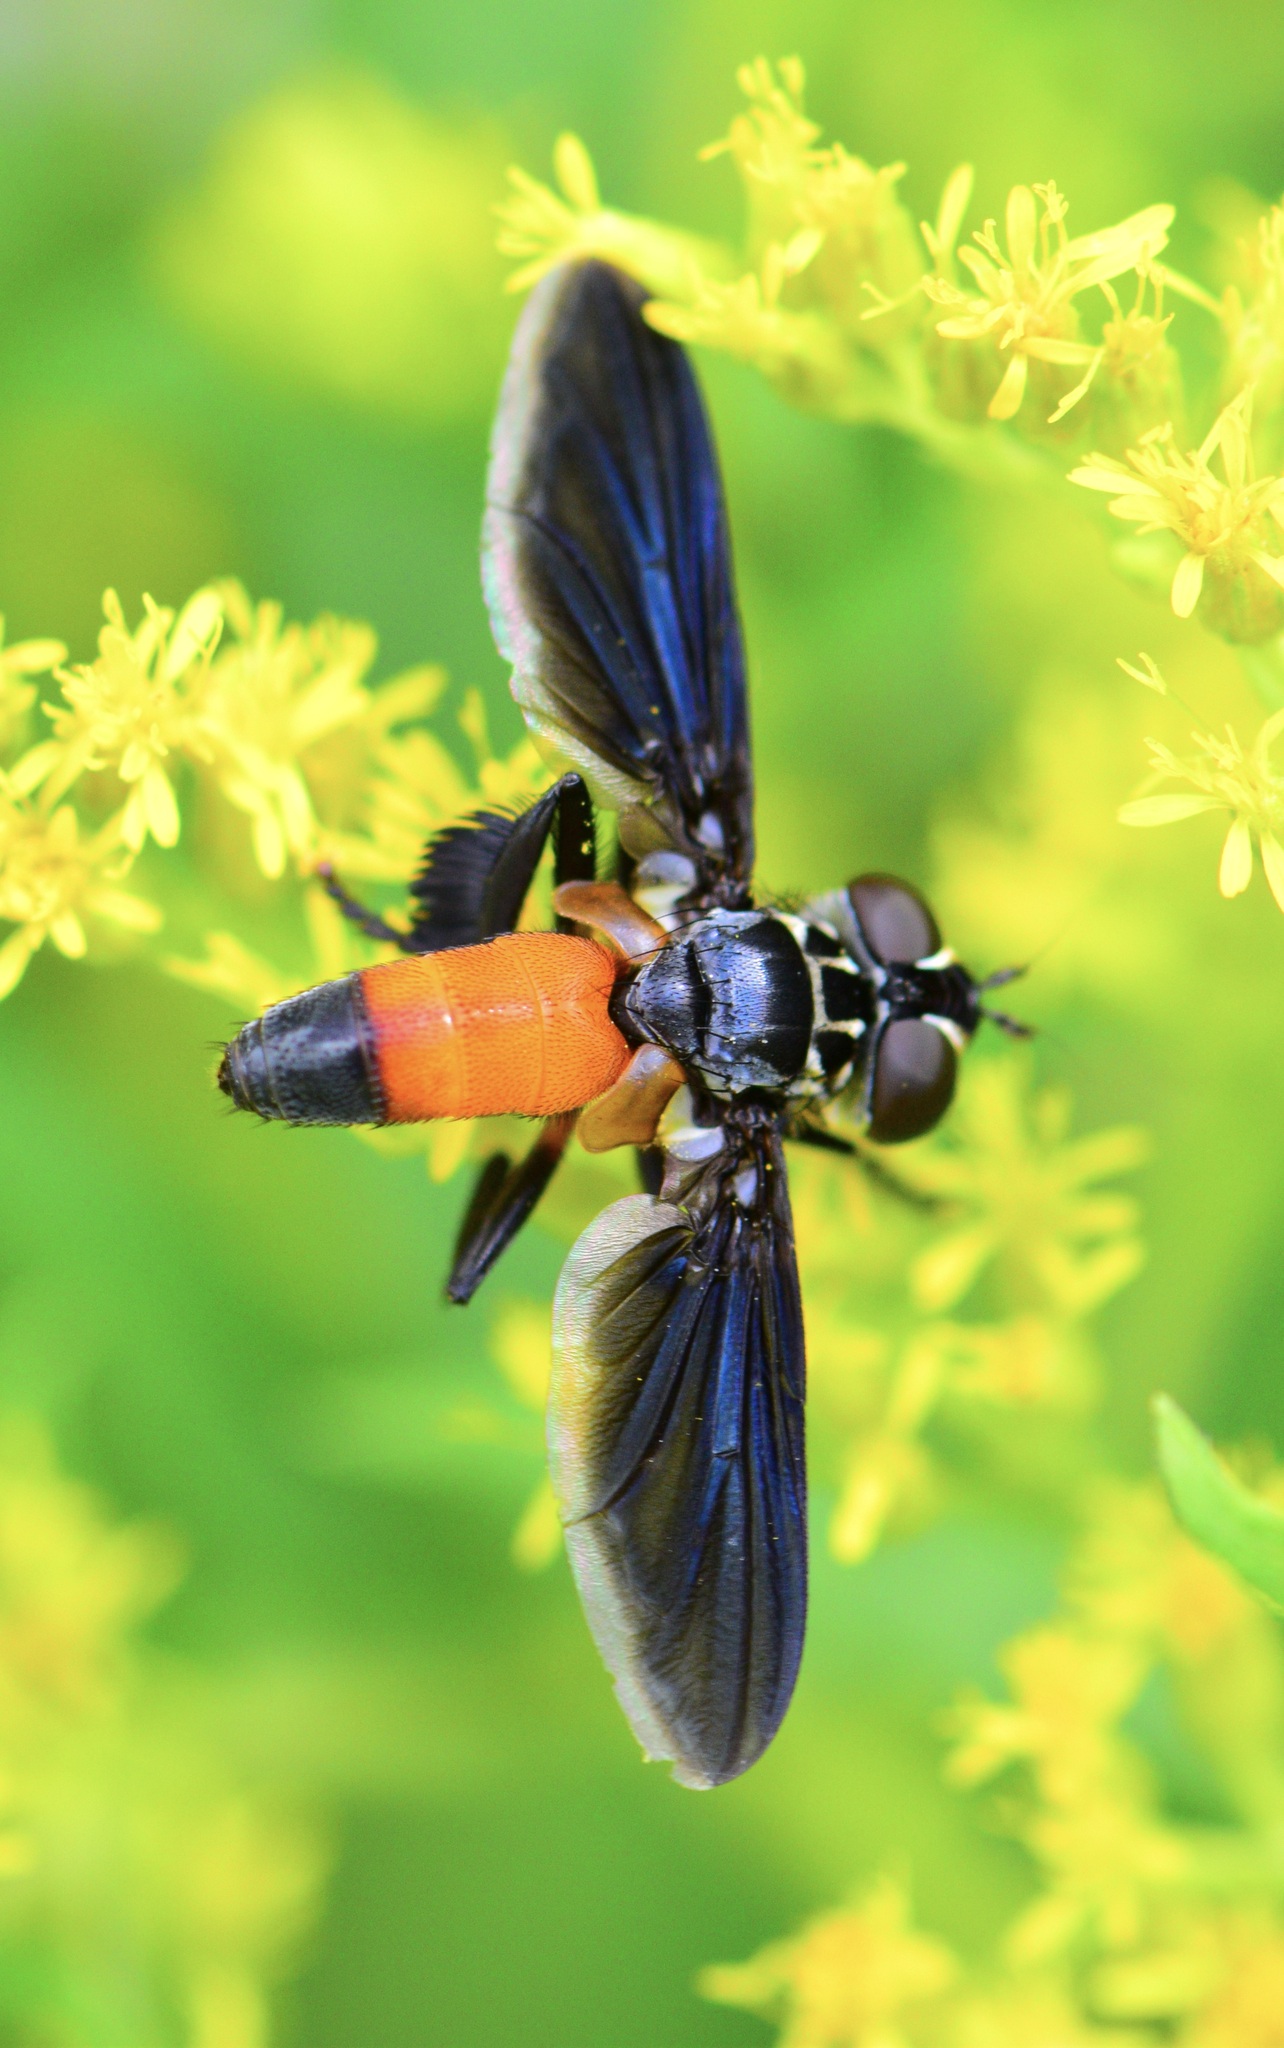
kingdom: Animalia
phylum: Arthropoda
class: Insecta
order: Diptera
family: Tachinidae
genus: Trichopoda
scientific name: Trichopoda pennipes
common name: Tachinid fly
